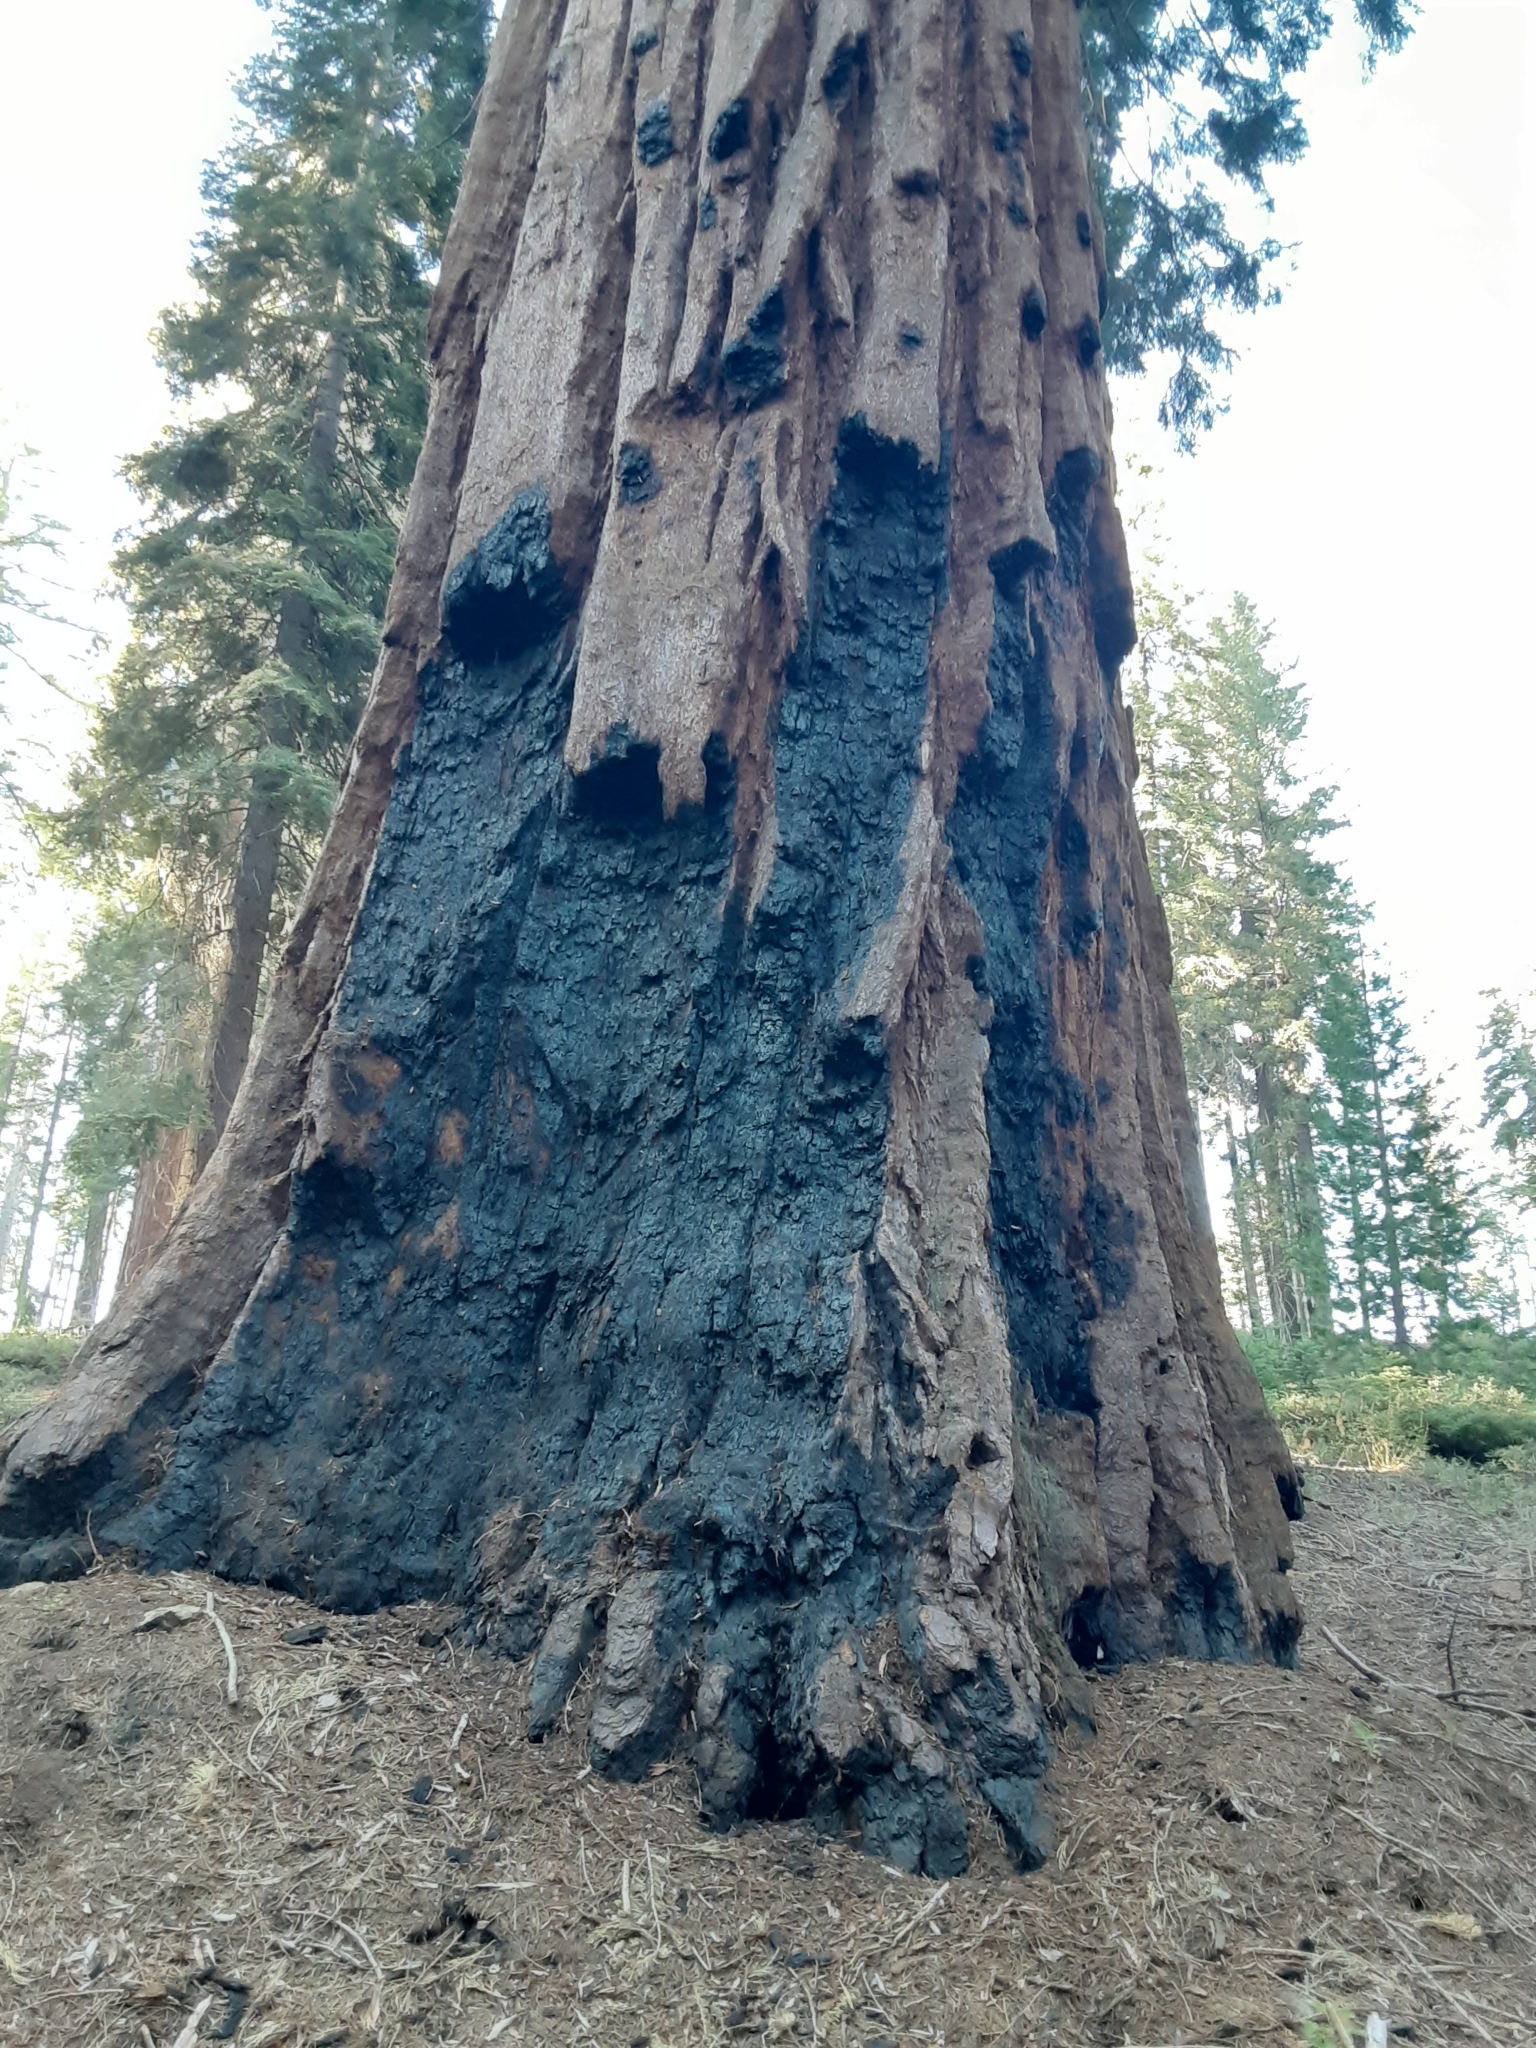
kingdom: Plantae
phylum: Tracheophyta
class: Pinopsida
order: Pinales
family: Cupressaceae
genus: Sequoiadendron
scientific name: Sequoiadendron giganteum
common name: Wellingtonia
